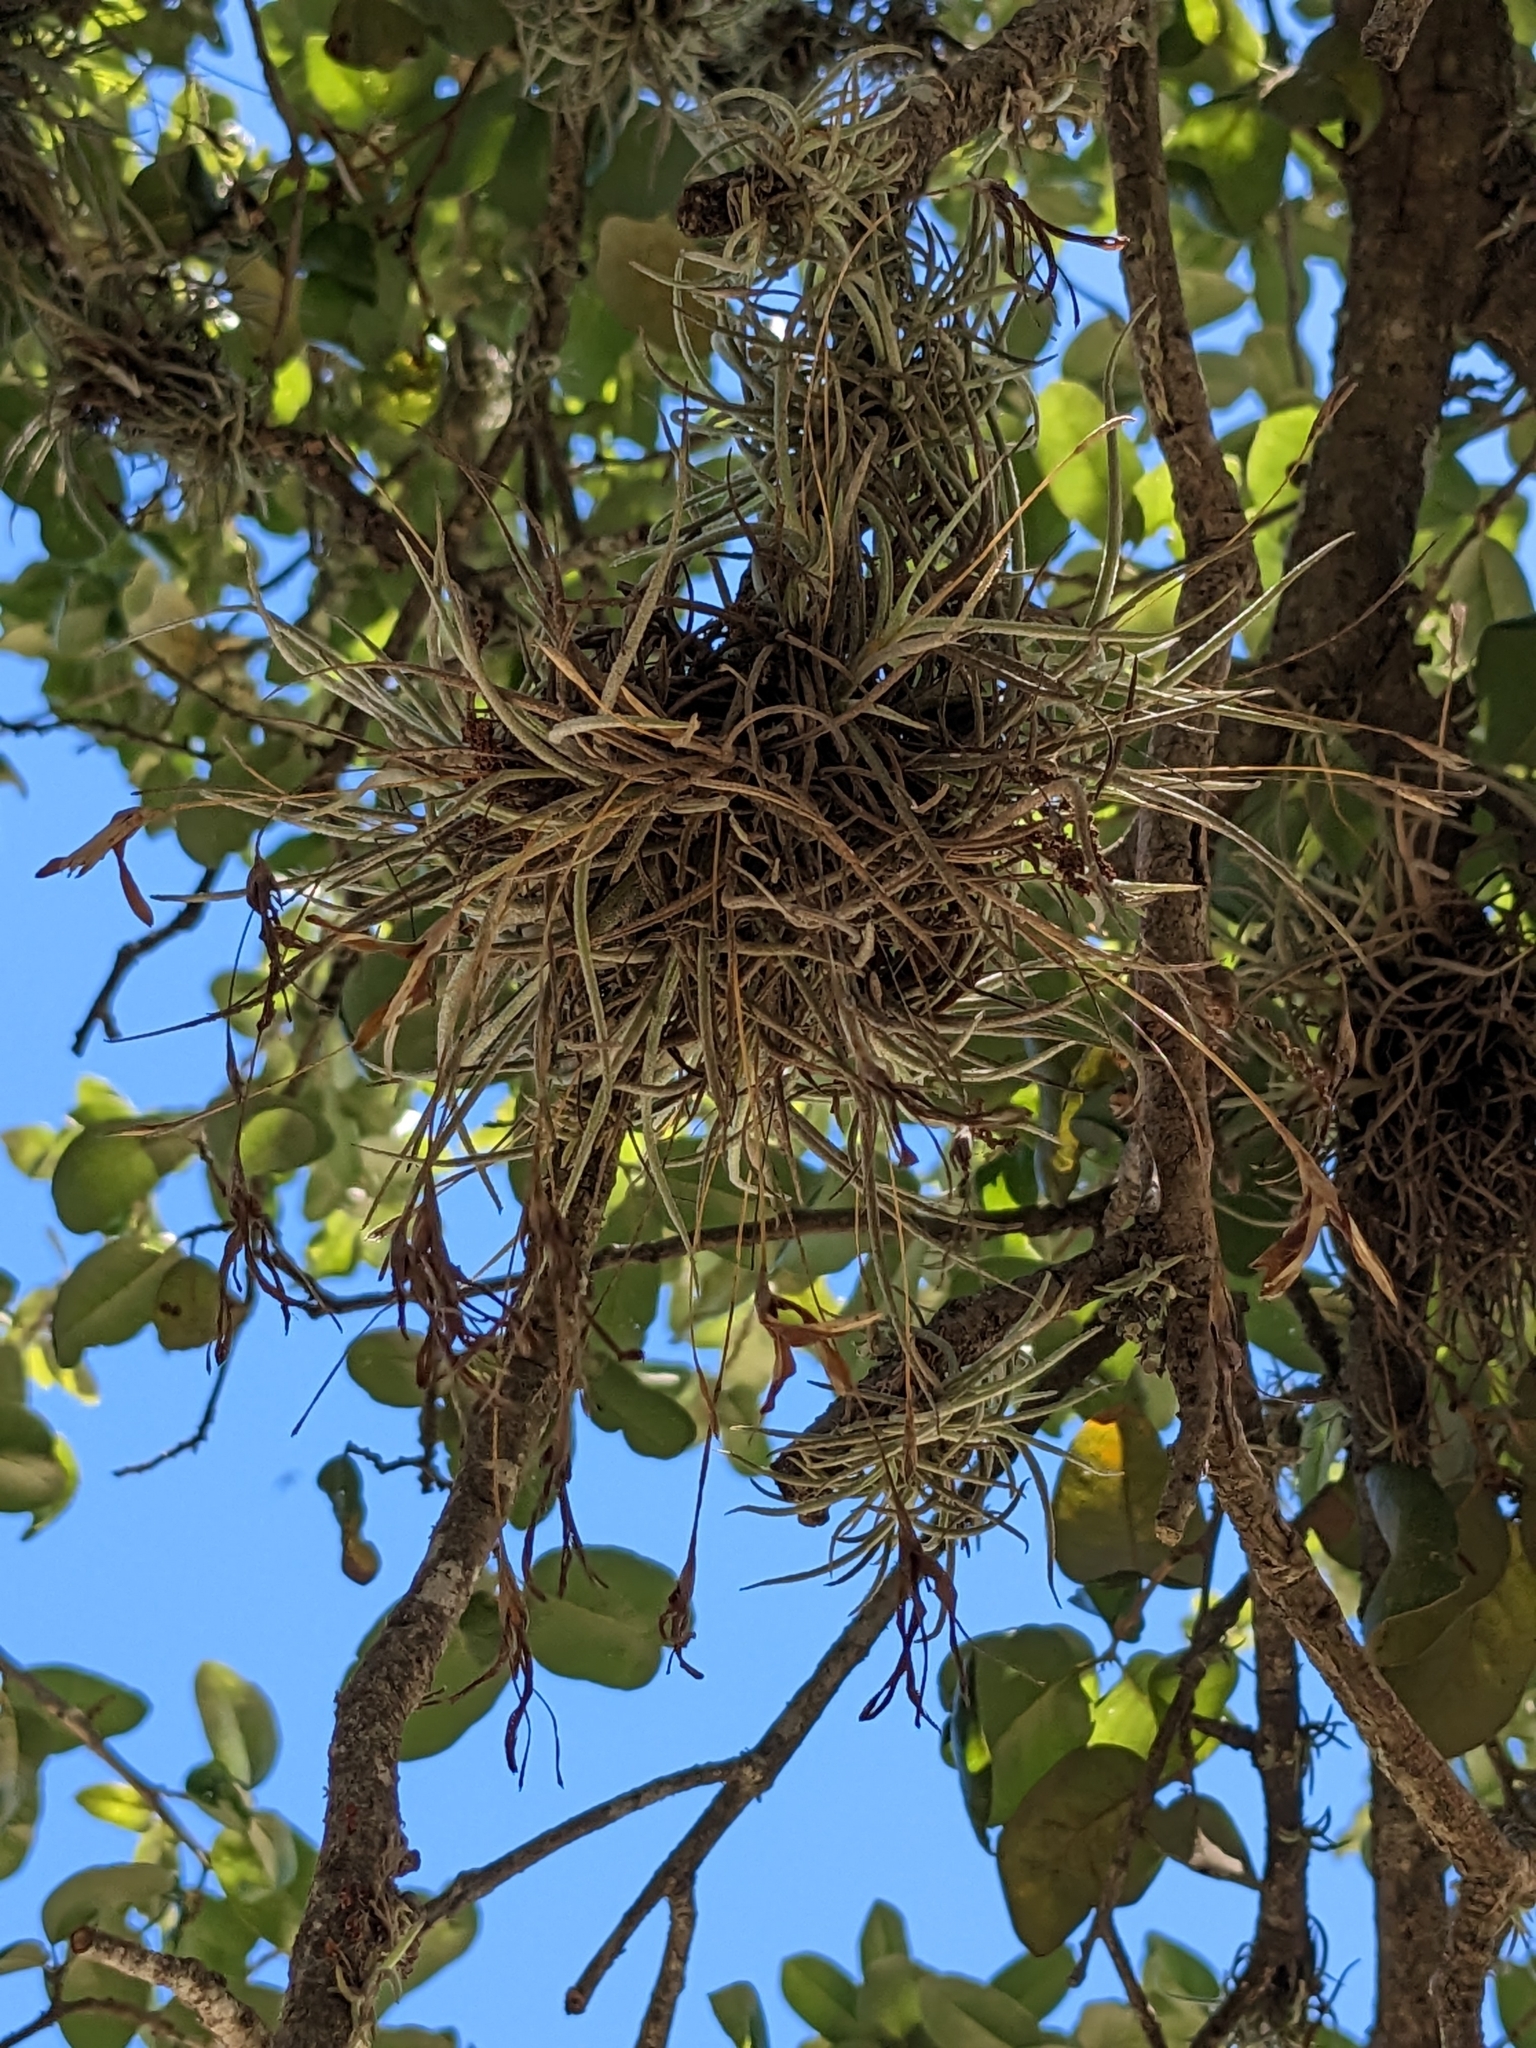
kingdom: Plantae
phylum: Tracheophyta
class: Liliopsida
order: Poales
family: Bromeliaceae
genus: Tillandsia
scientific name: Tillandsia recurvata
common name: Small ballmoss
